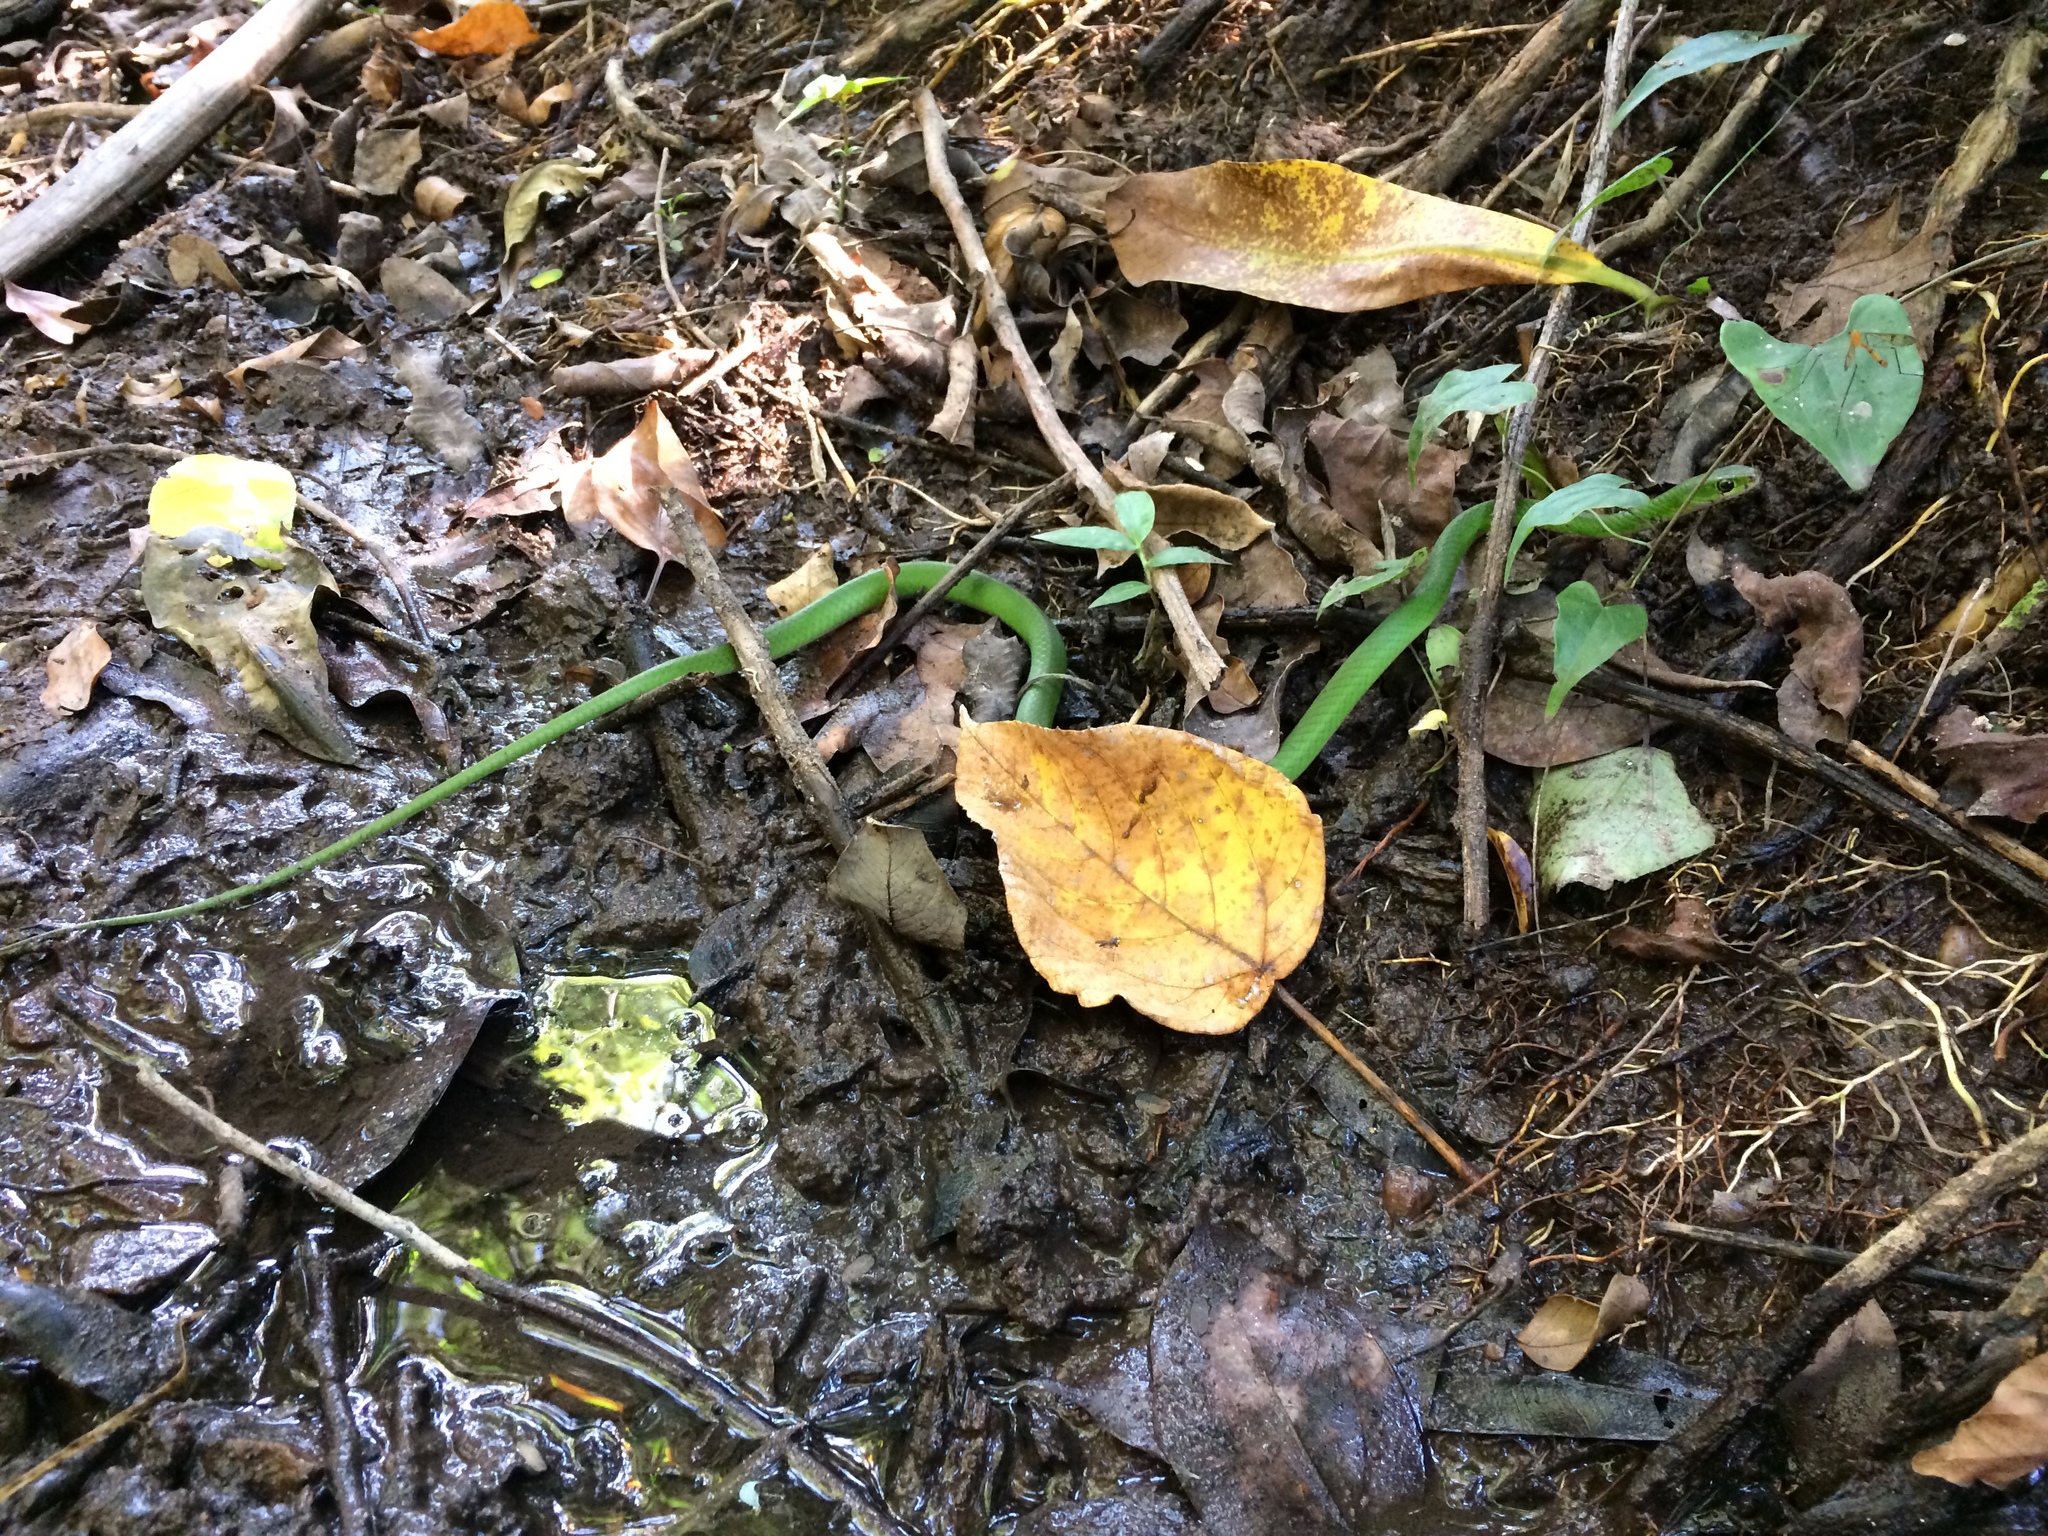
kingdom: Animalia
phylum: Chordata
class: Squamata
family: Colubridae
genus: Philothamnus
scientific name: Philothamnus hoplogaster
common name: Green water snake
